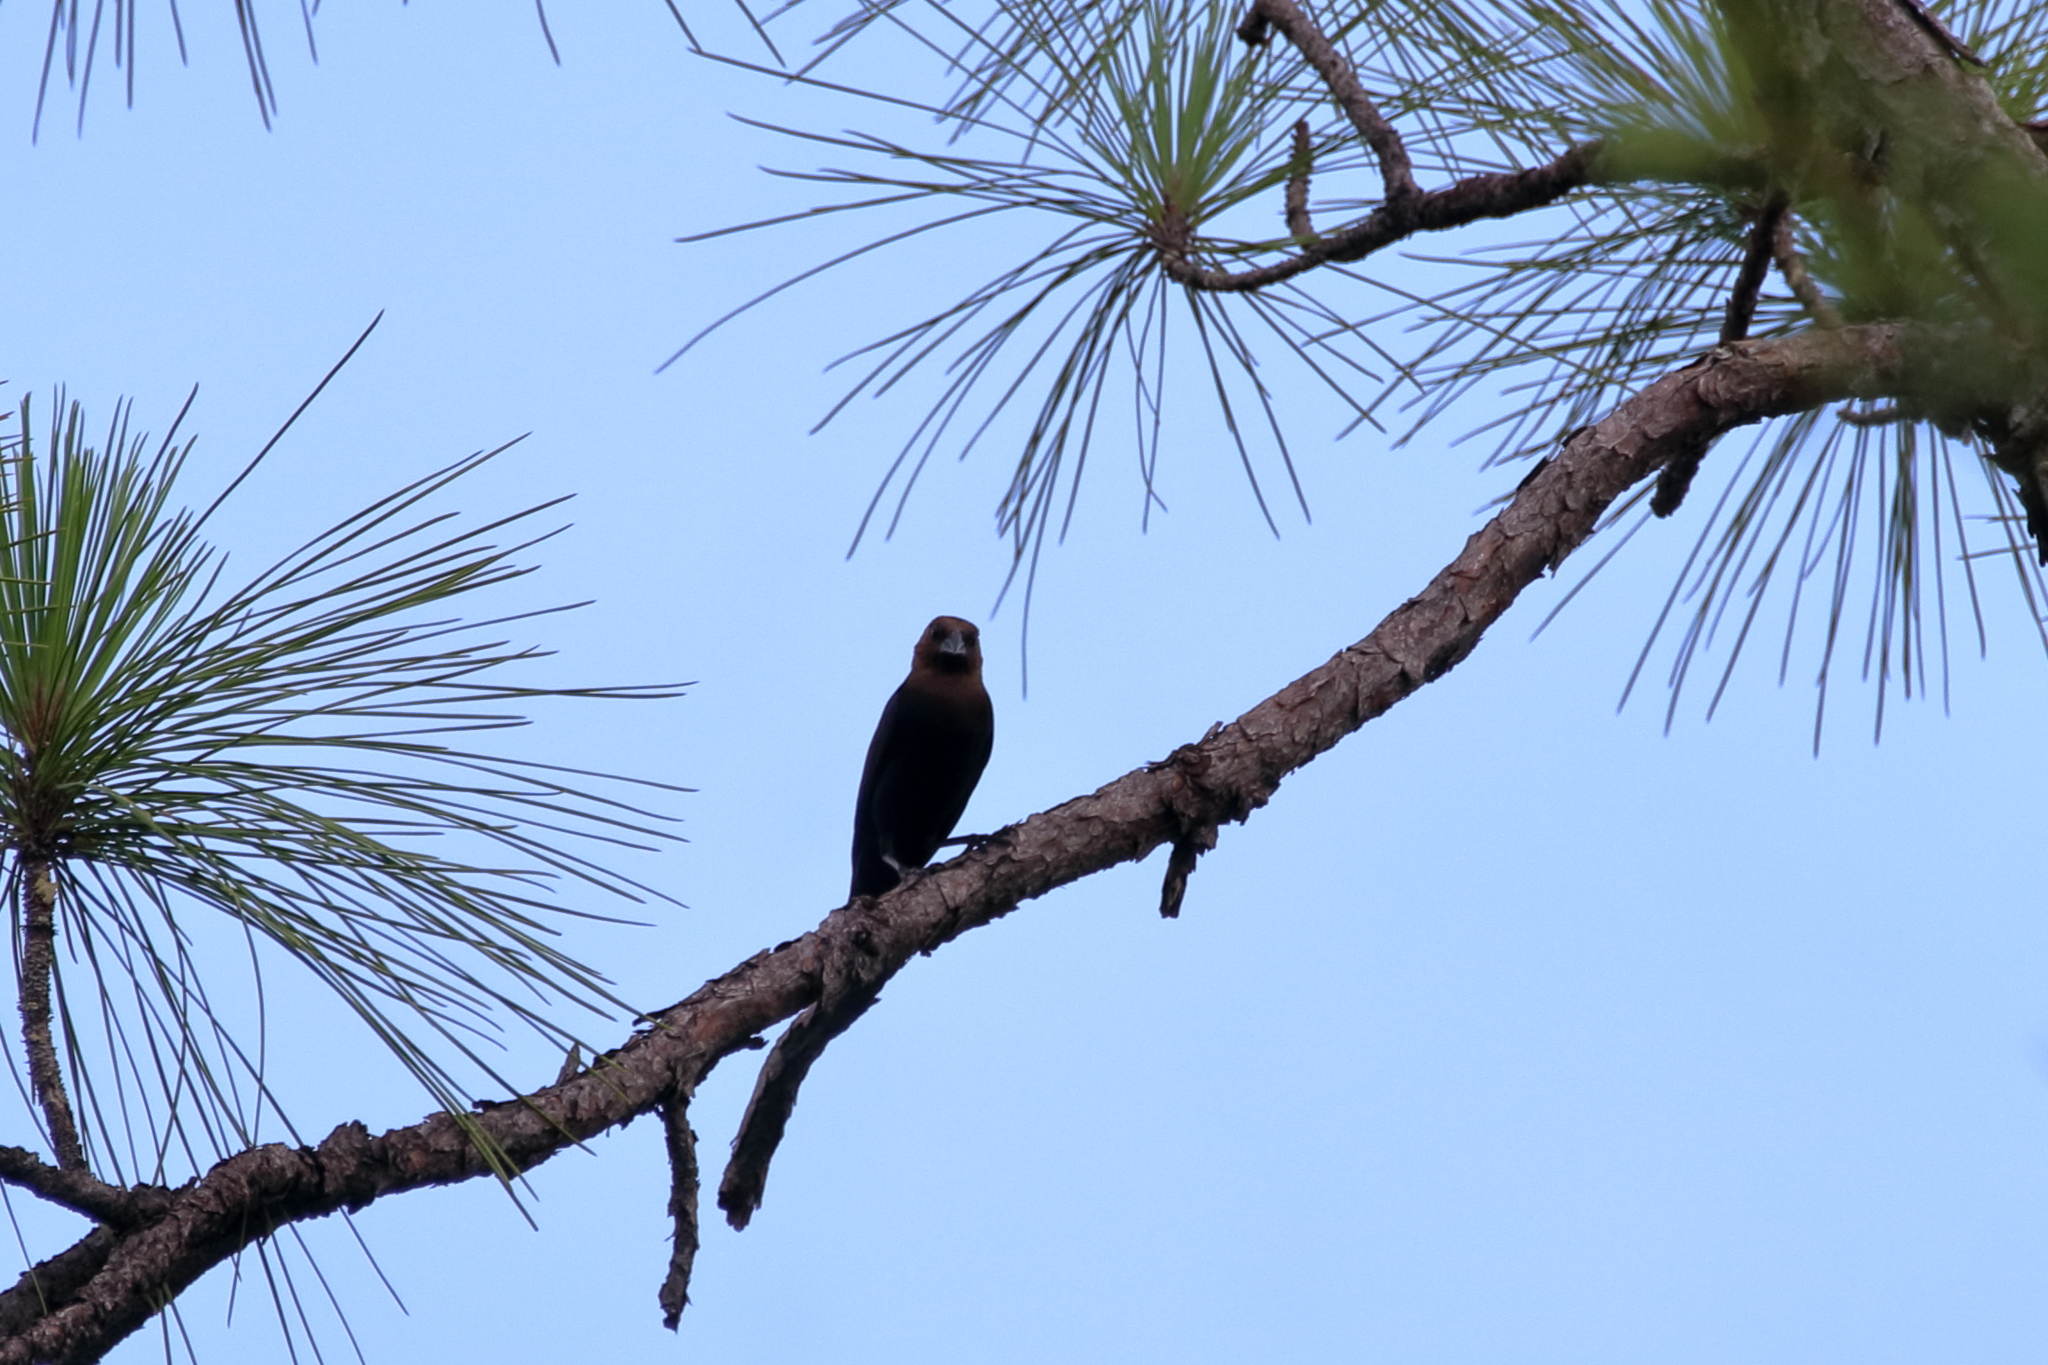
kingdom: Animalia
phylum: Chordata
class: Aves
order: Passeriformes
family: Icteridae
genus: Molothrus
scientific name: Molothrus ater
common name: Brown-headed cowbird
